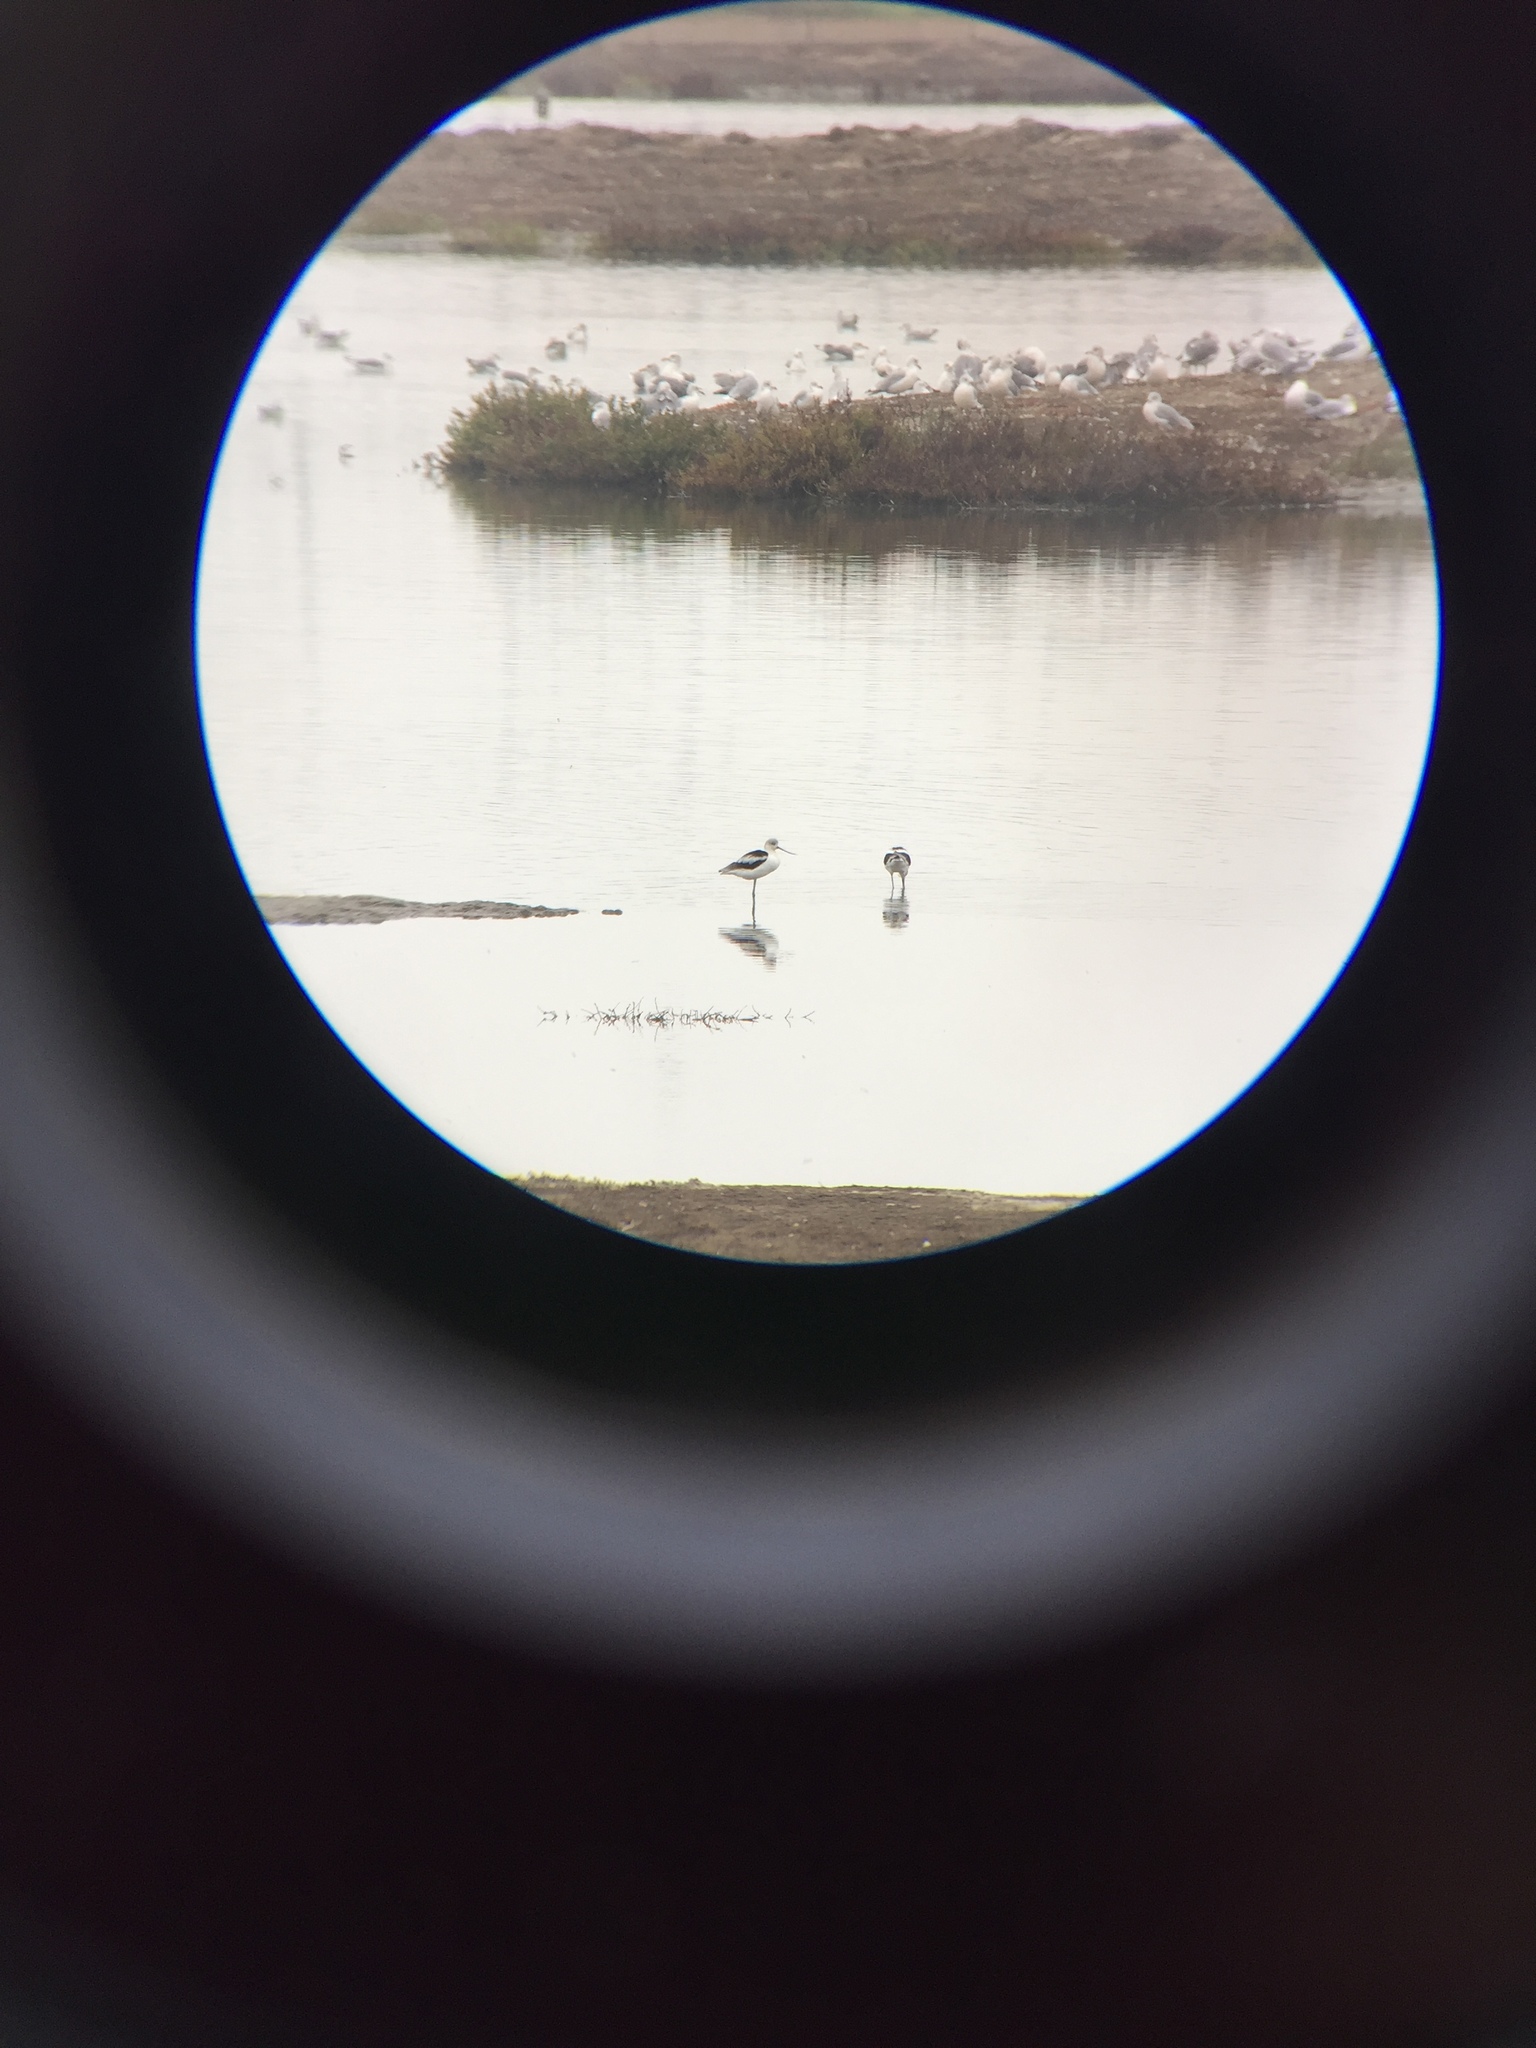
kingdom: Animalia
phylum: Chordata
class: Aves
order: Charadriiformes
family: Recurvirostridae
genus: Recurvirostra
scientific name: Recurvirostra americana
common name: American avocet
